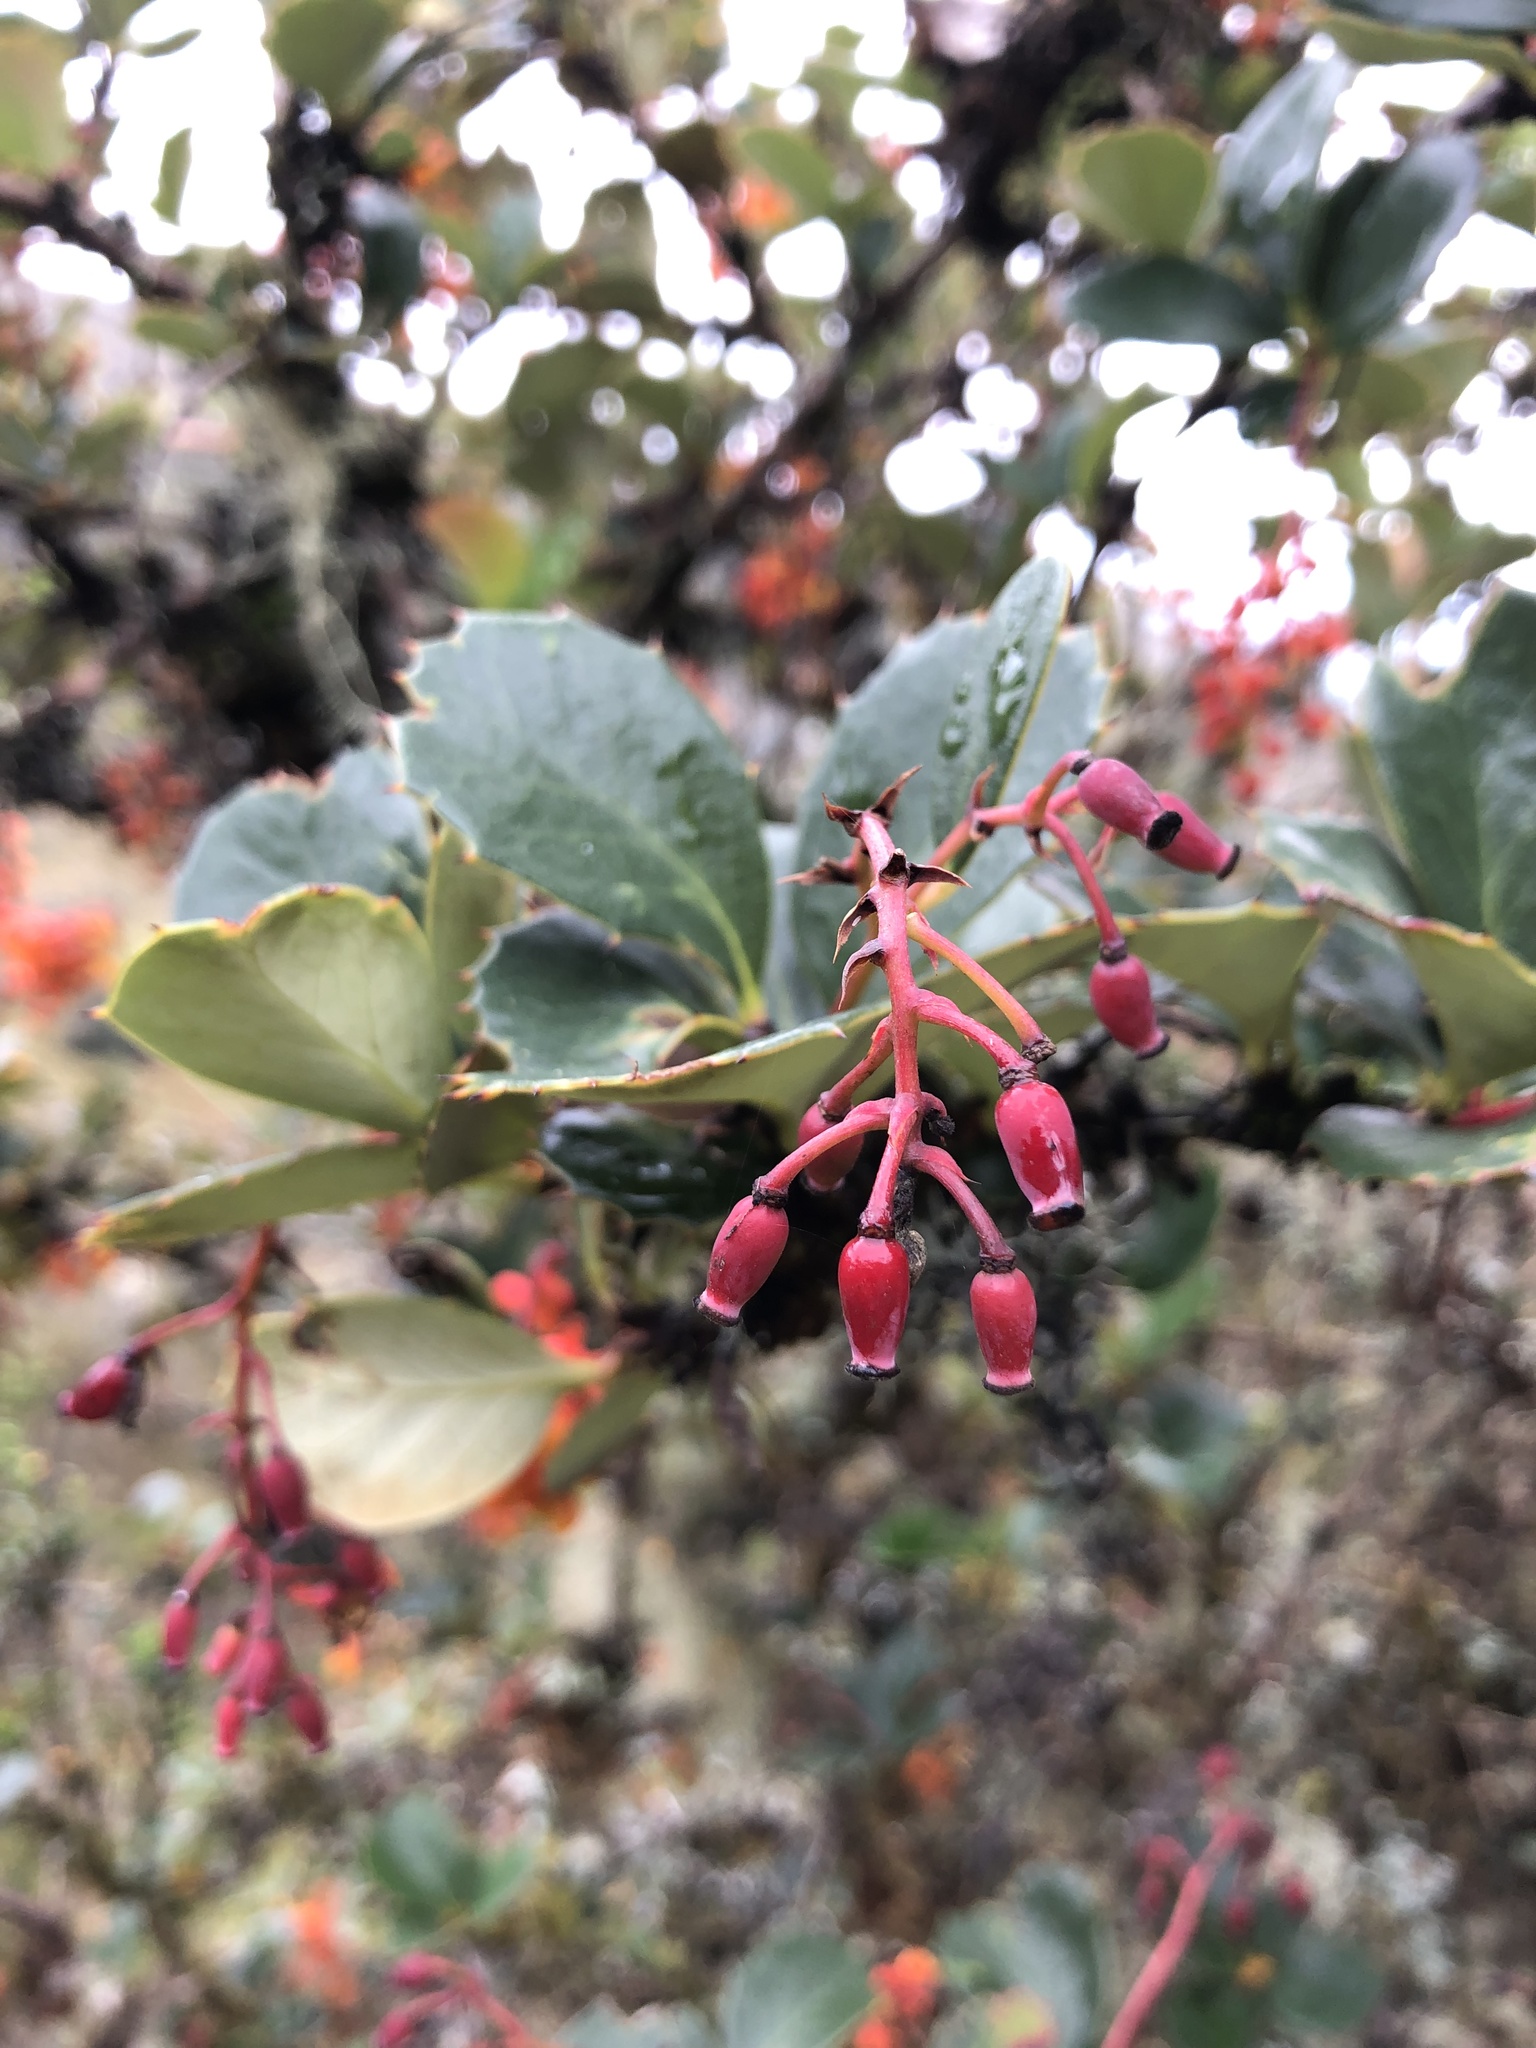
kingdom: Plantae
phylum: Tracheophyta
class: Magnoliopsida
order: Ranunculales
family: Berberidaceae
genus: Berberis
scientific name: Berberis goudotii
